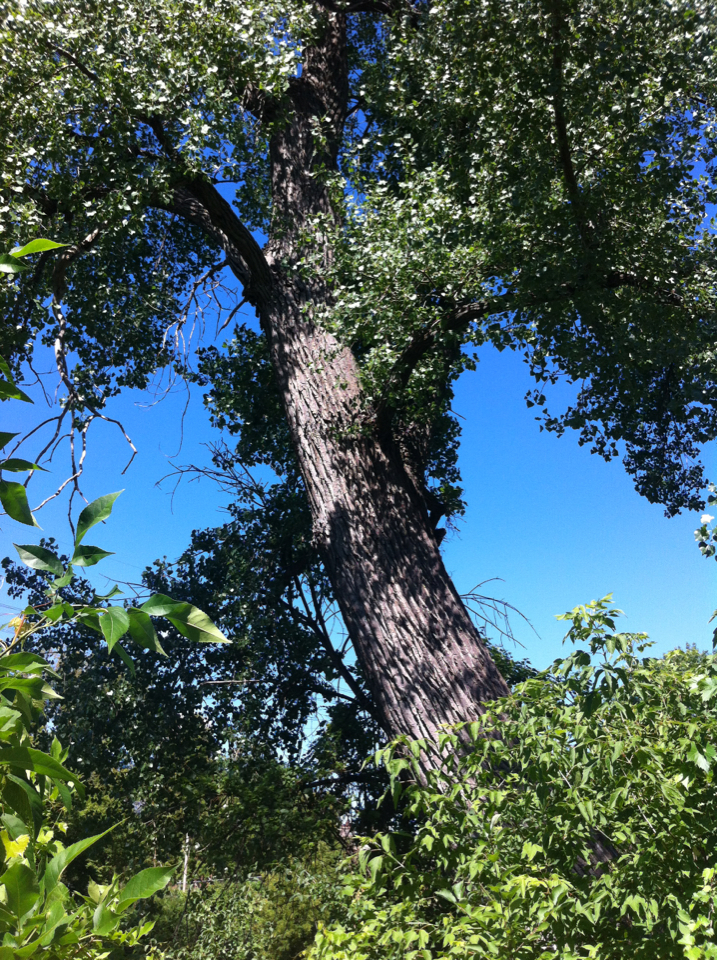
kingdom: Plantae
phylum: Tracheophyta
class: Magnoliopsida
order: Malpighiales
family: Salicaceae
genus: Populus
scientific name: Populus deltoides
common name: Eastern cottonwood
